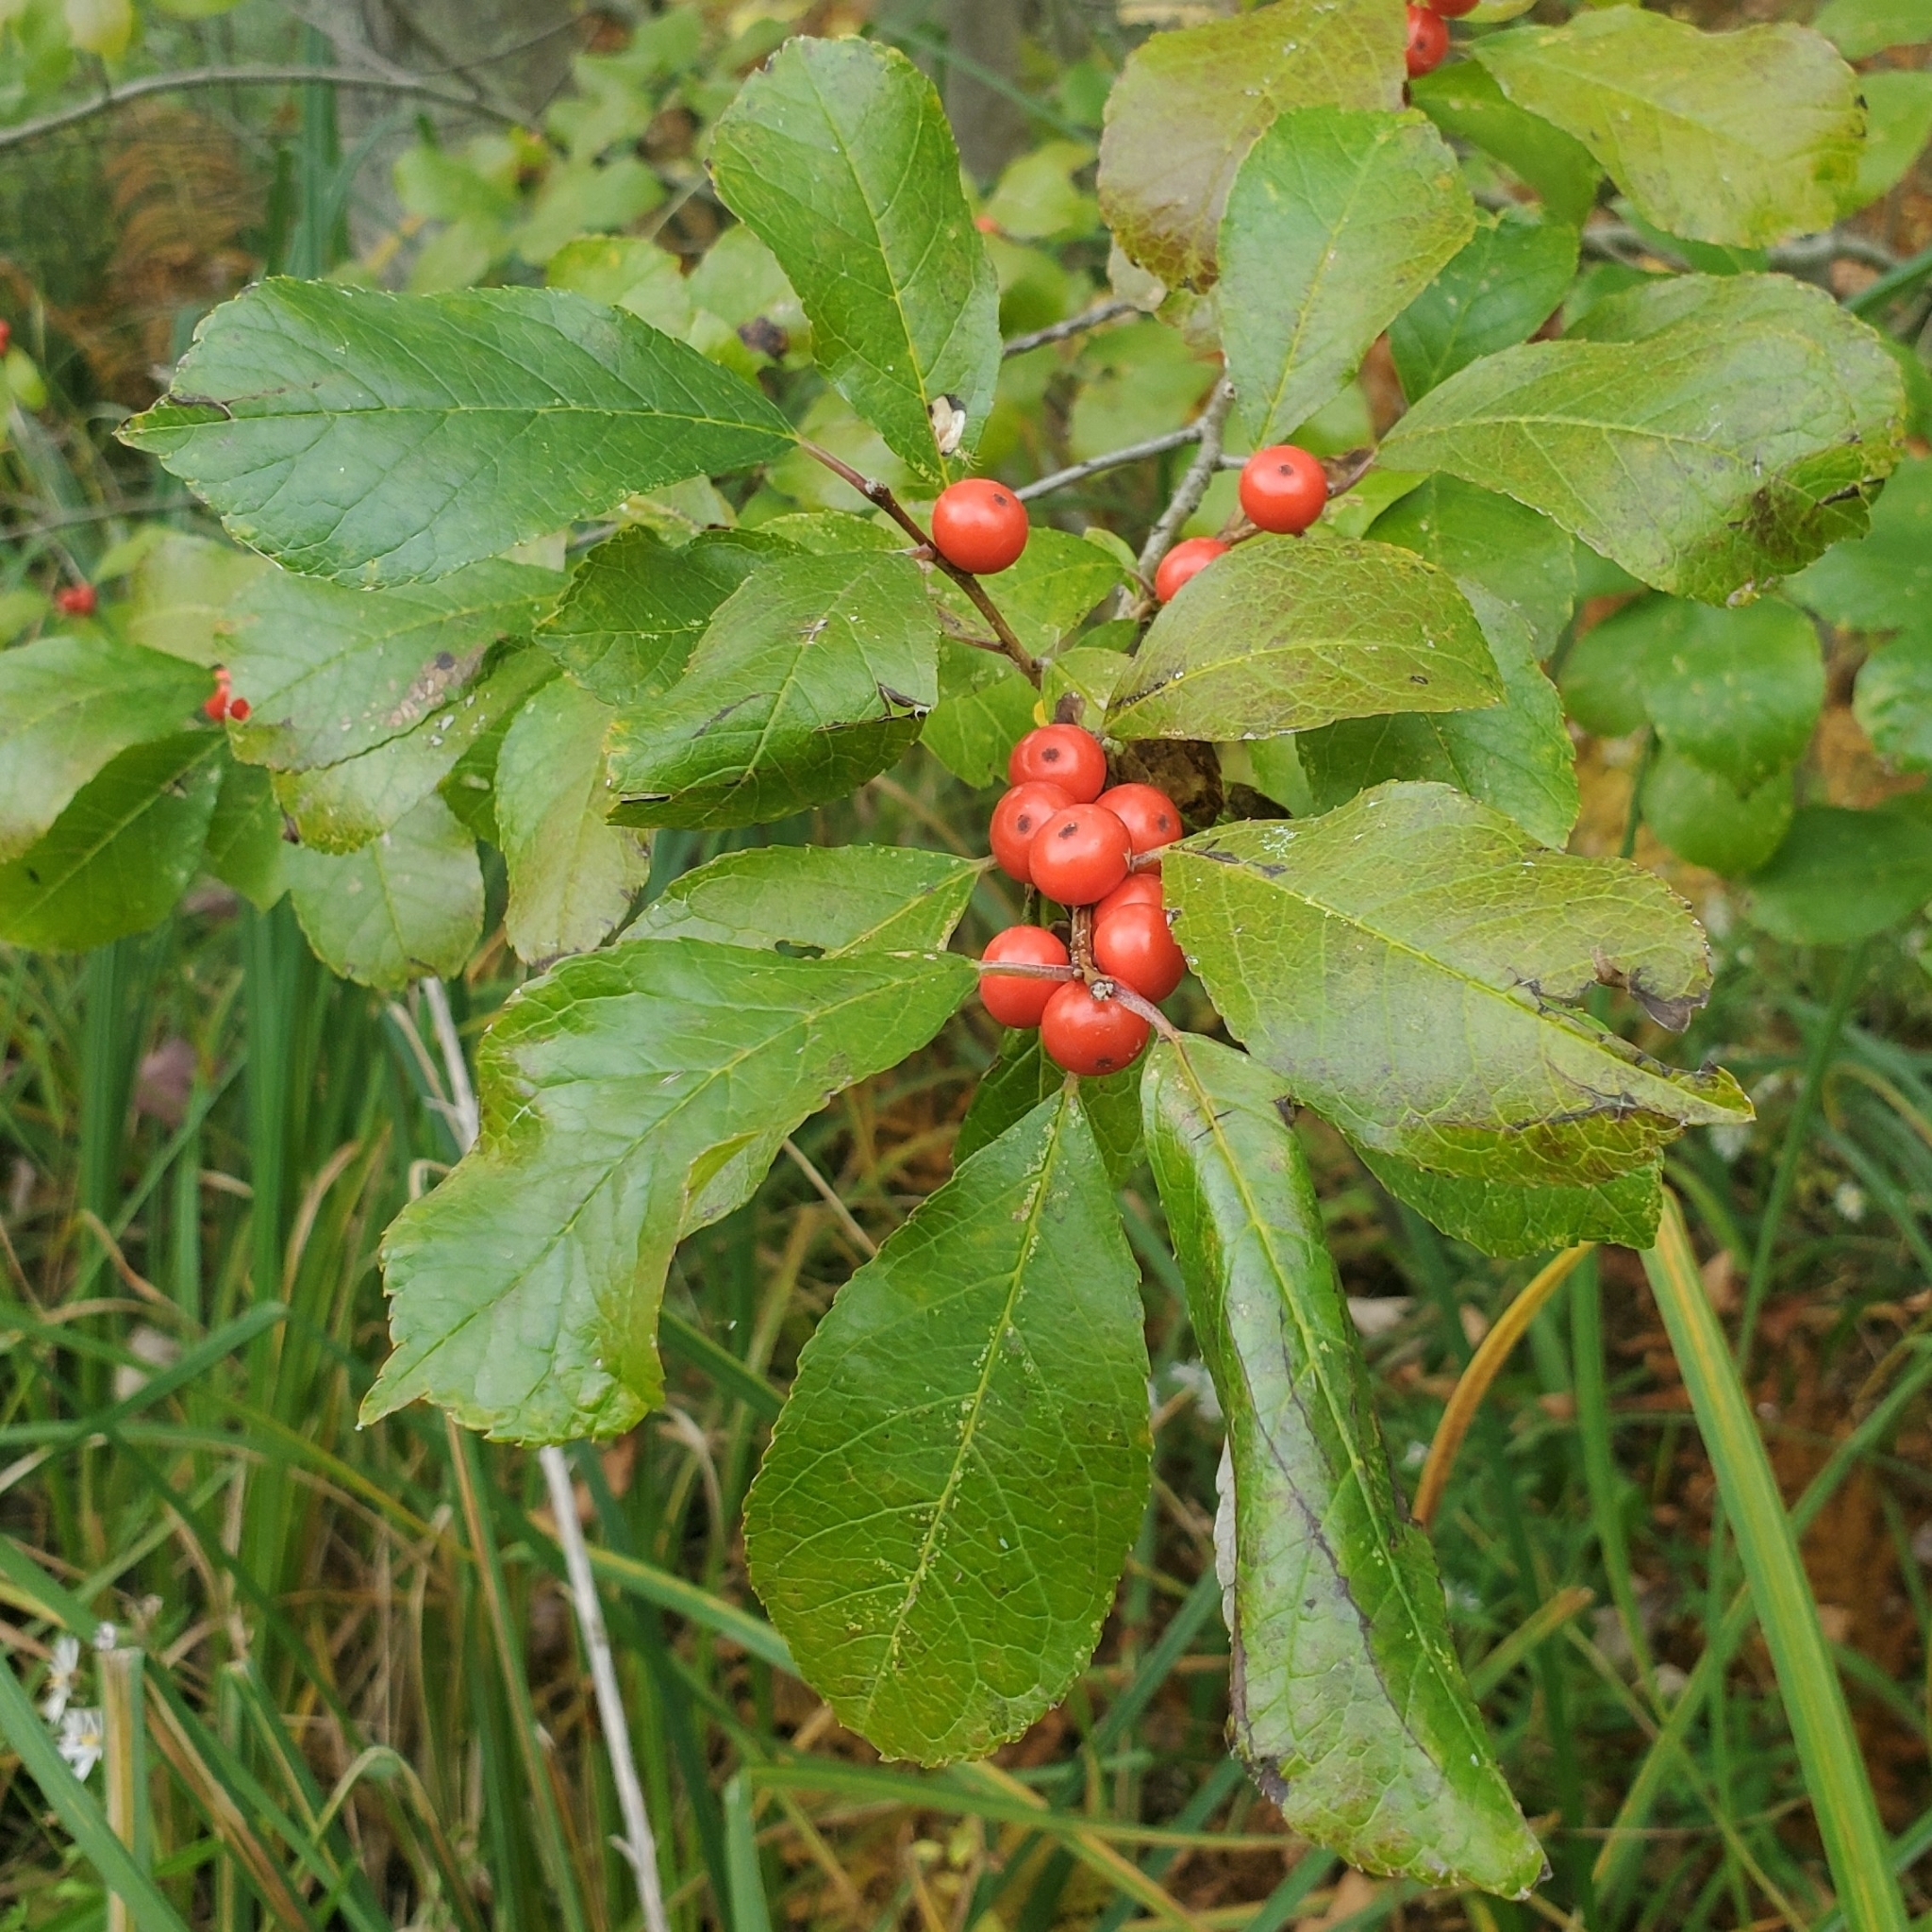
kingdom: Plantae
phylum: Tracheophyta
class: Magnoliopsida
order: Aquifoliales
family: Aquifoliaceae
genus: Ilex
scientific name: Ilex verticillata
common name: Virginia winterberry
